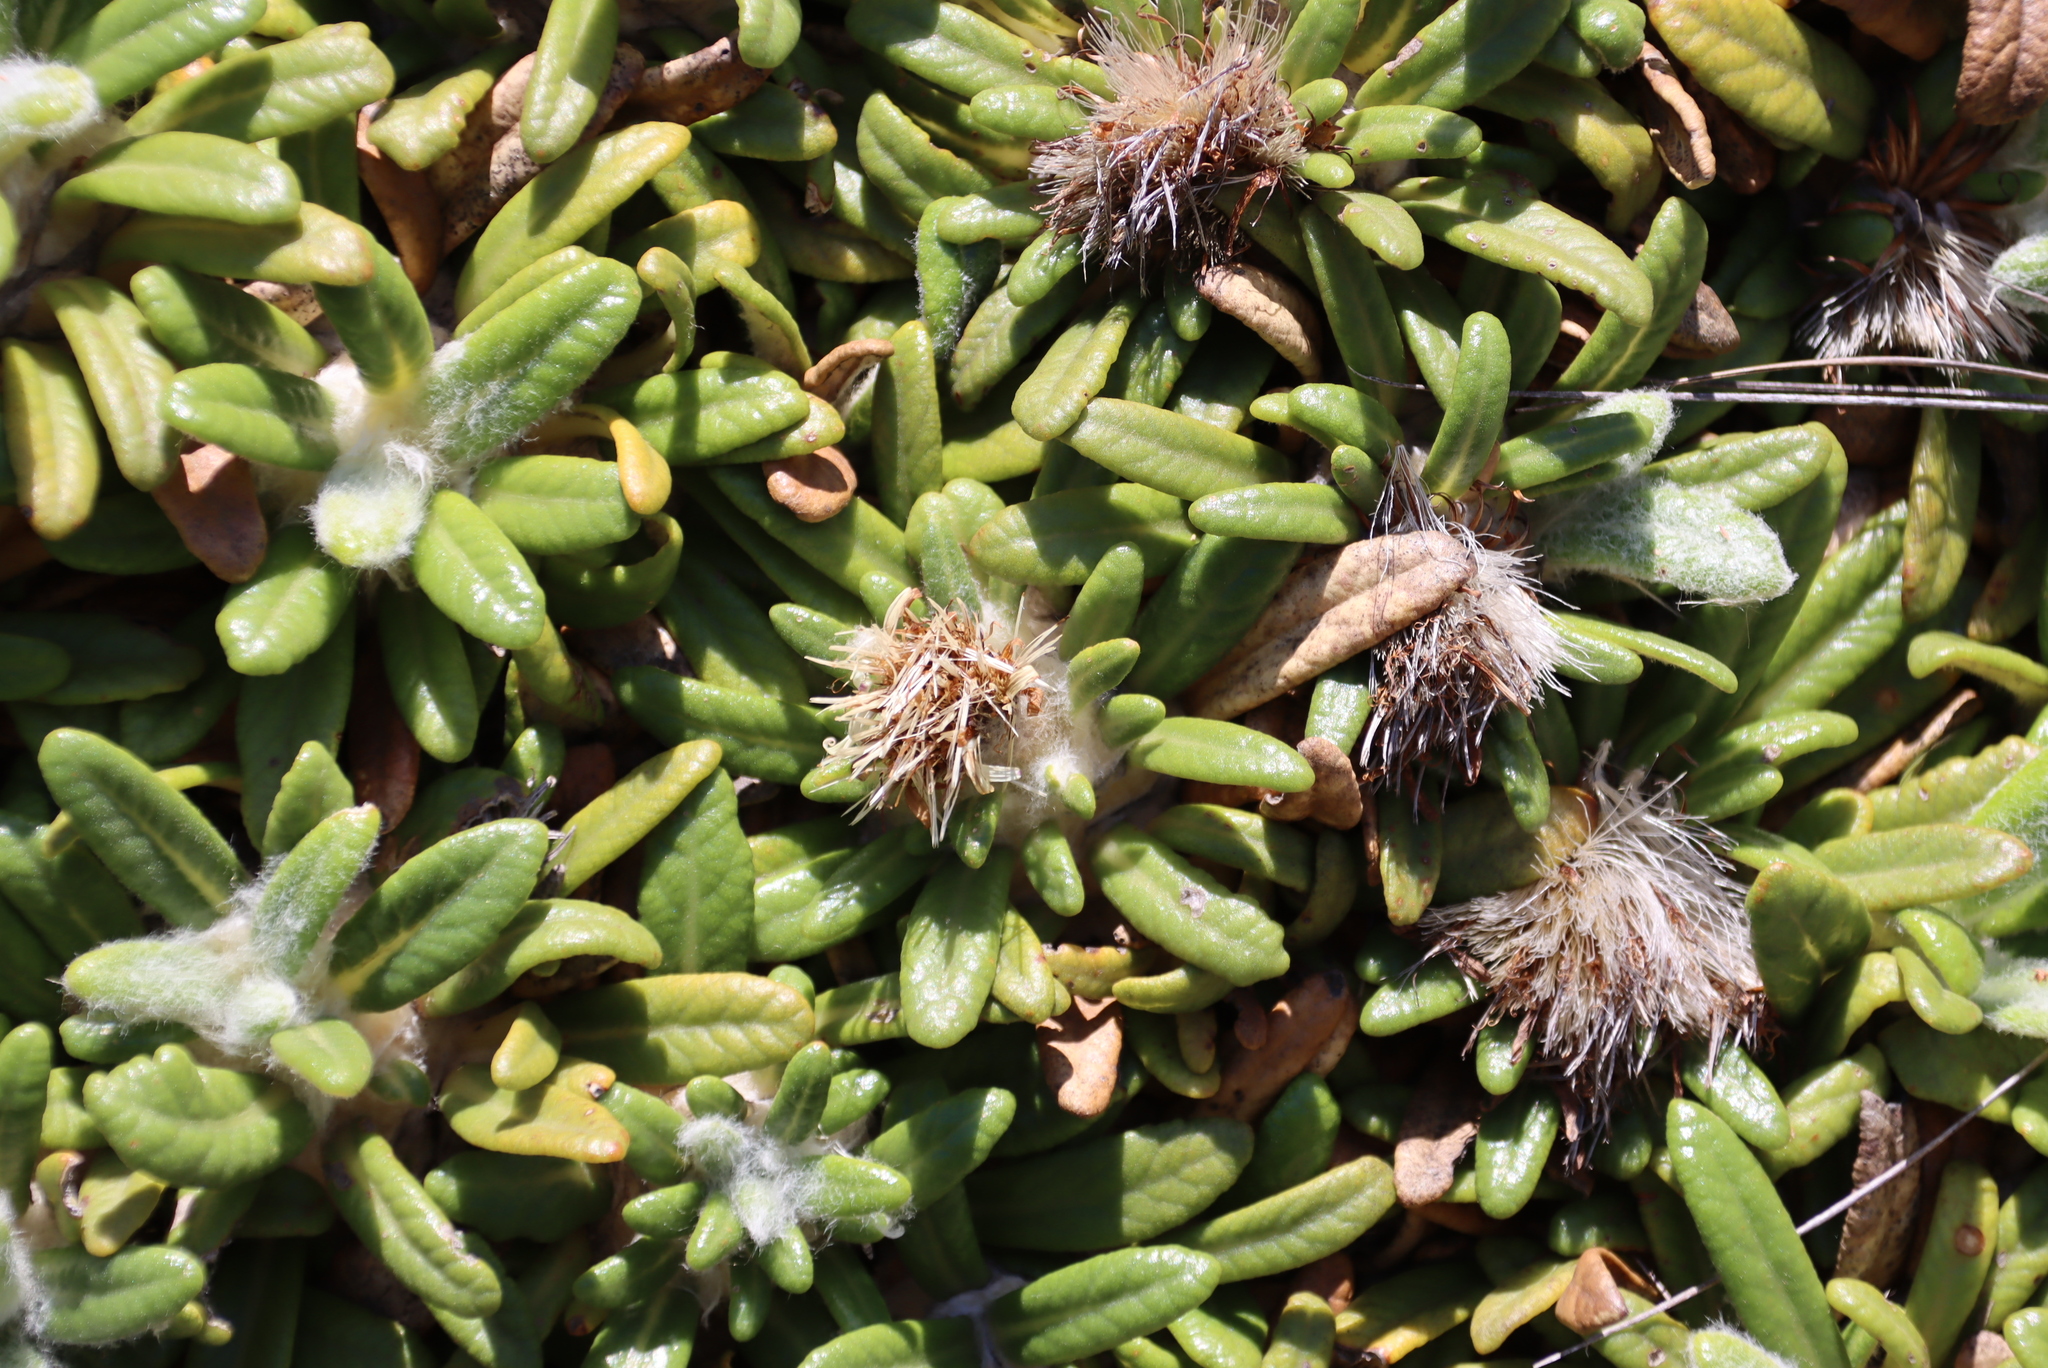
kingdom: Plantae
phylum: Tracheophyta
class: Magnoliopsida
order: Asterales
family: Asteraceae
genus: Oldenburgia
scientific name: Oldenburgia paradoxa
